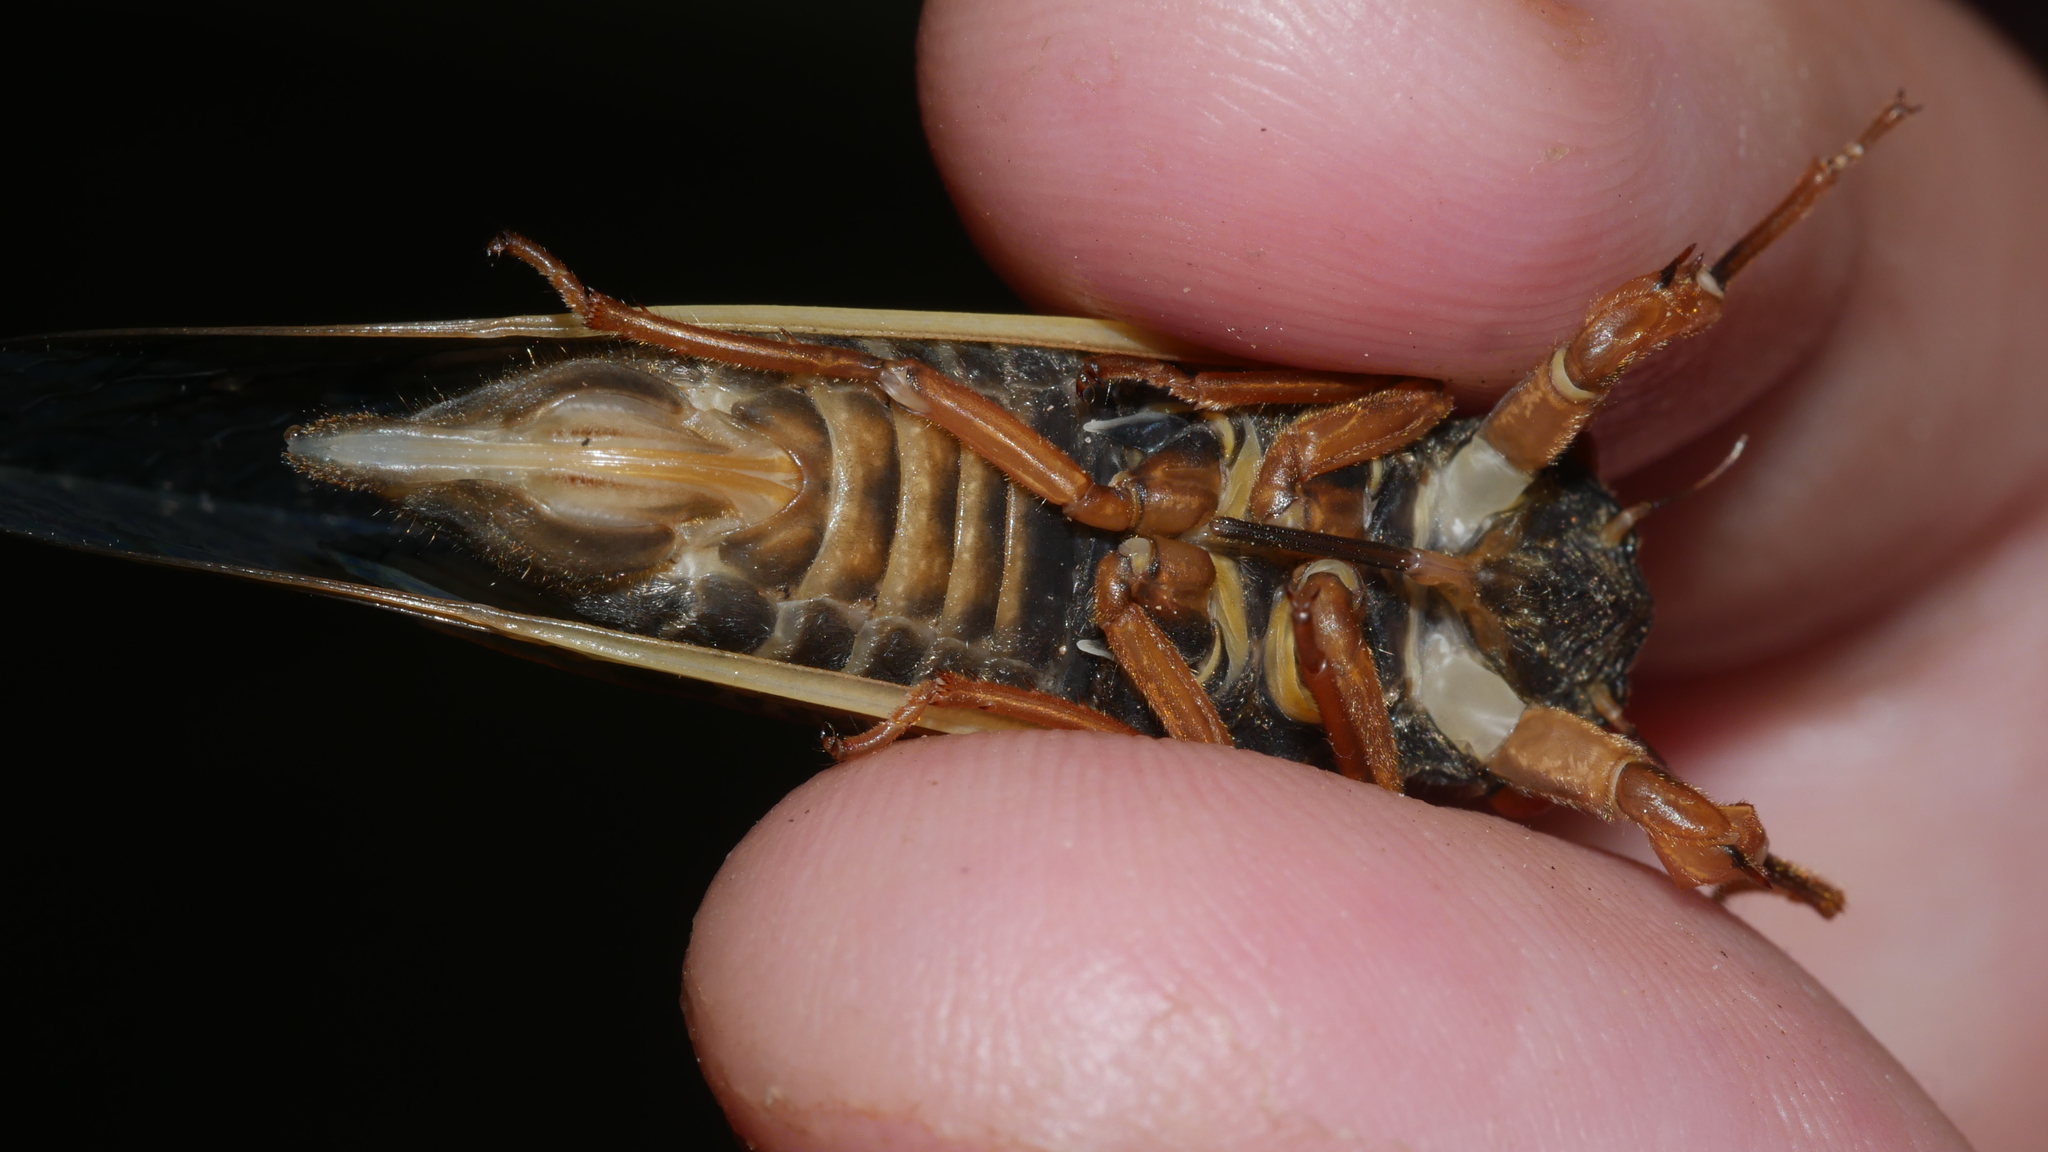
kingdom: Animalia
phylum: Arthropoda
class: Insecta
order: Hemiptera
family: Cicadidae
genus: Magicicada
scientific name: Magicicada
